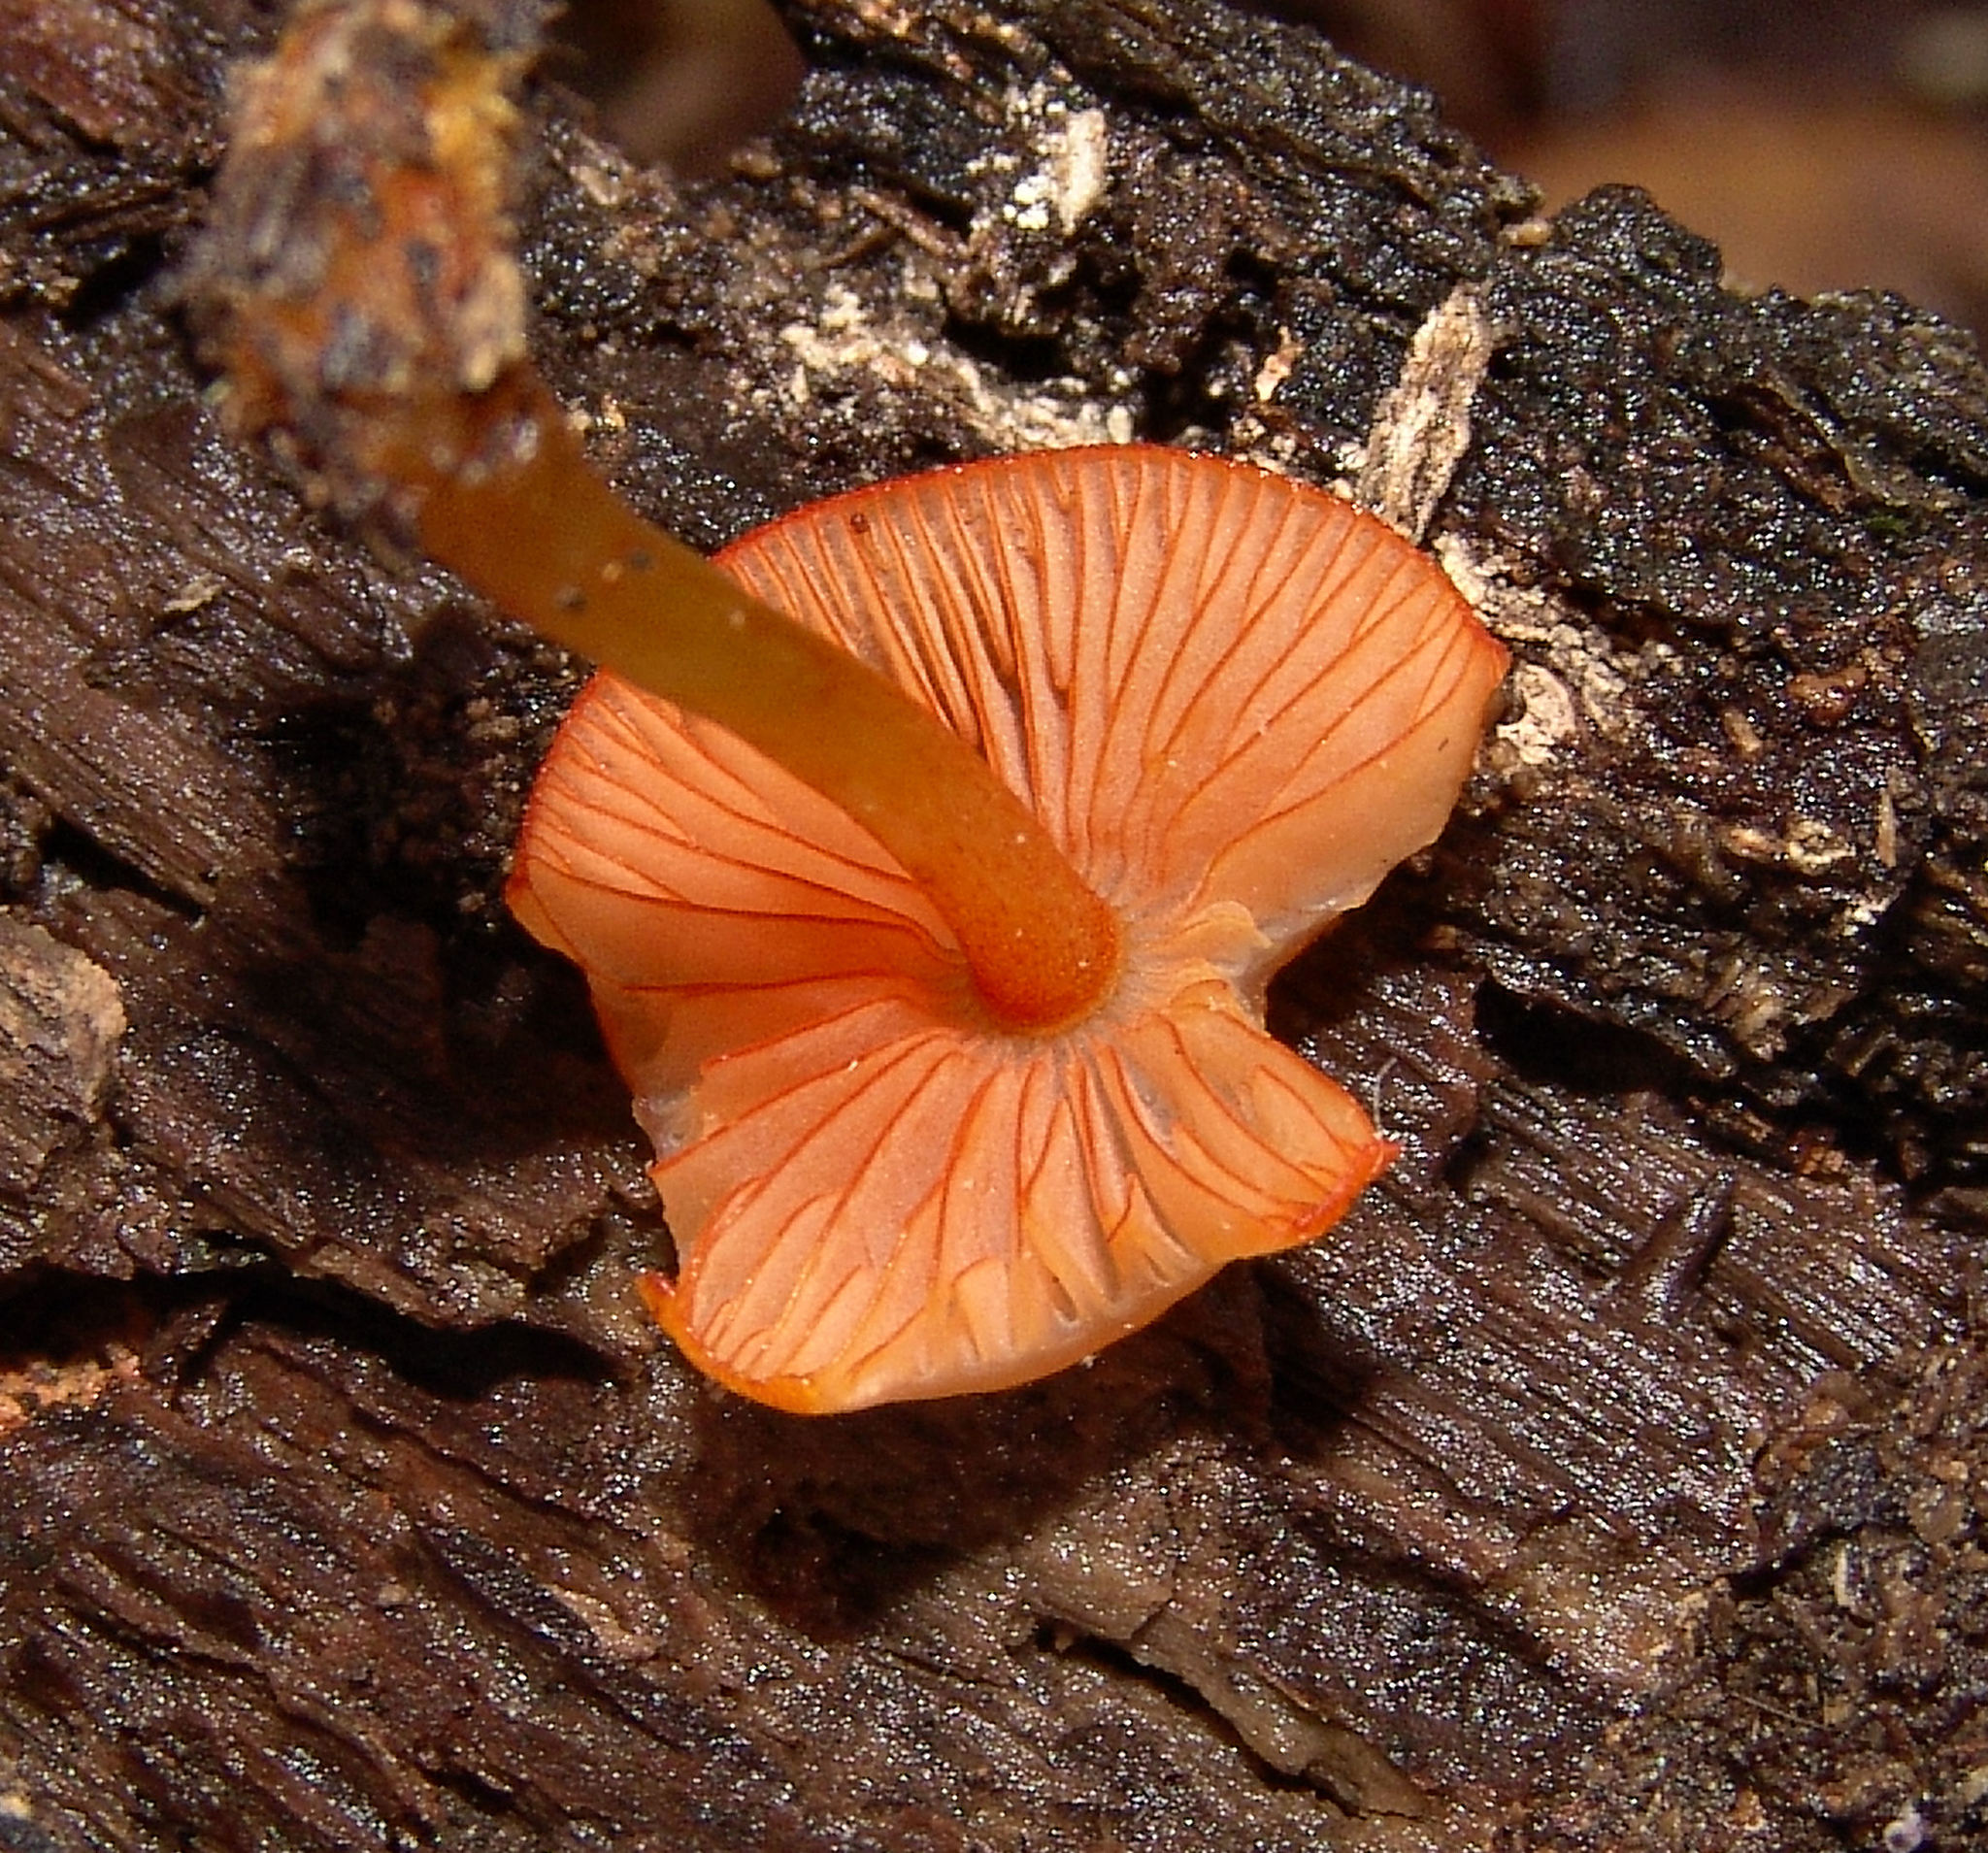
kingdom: Fungi
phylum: Basidiomycota
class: Agaricomycetes
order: Agaricales
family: Mycenaceae
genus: Mycena
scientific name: Mycena leaiana
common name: Orange mycena
